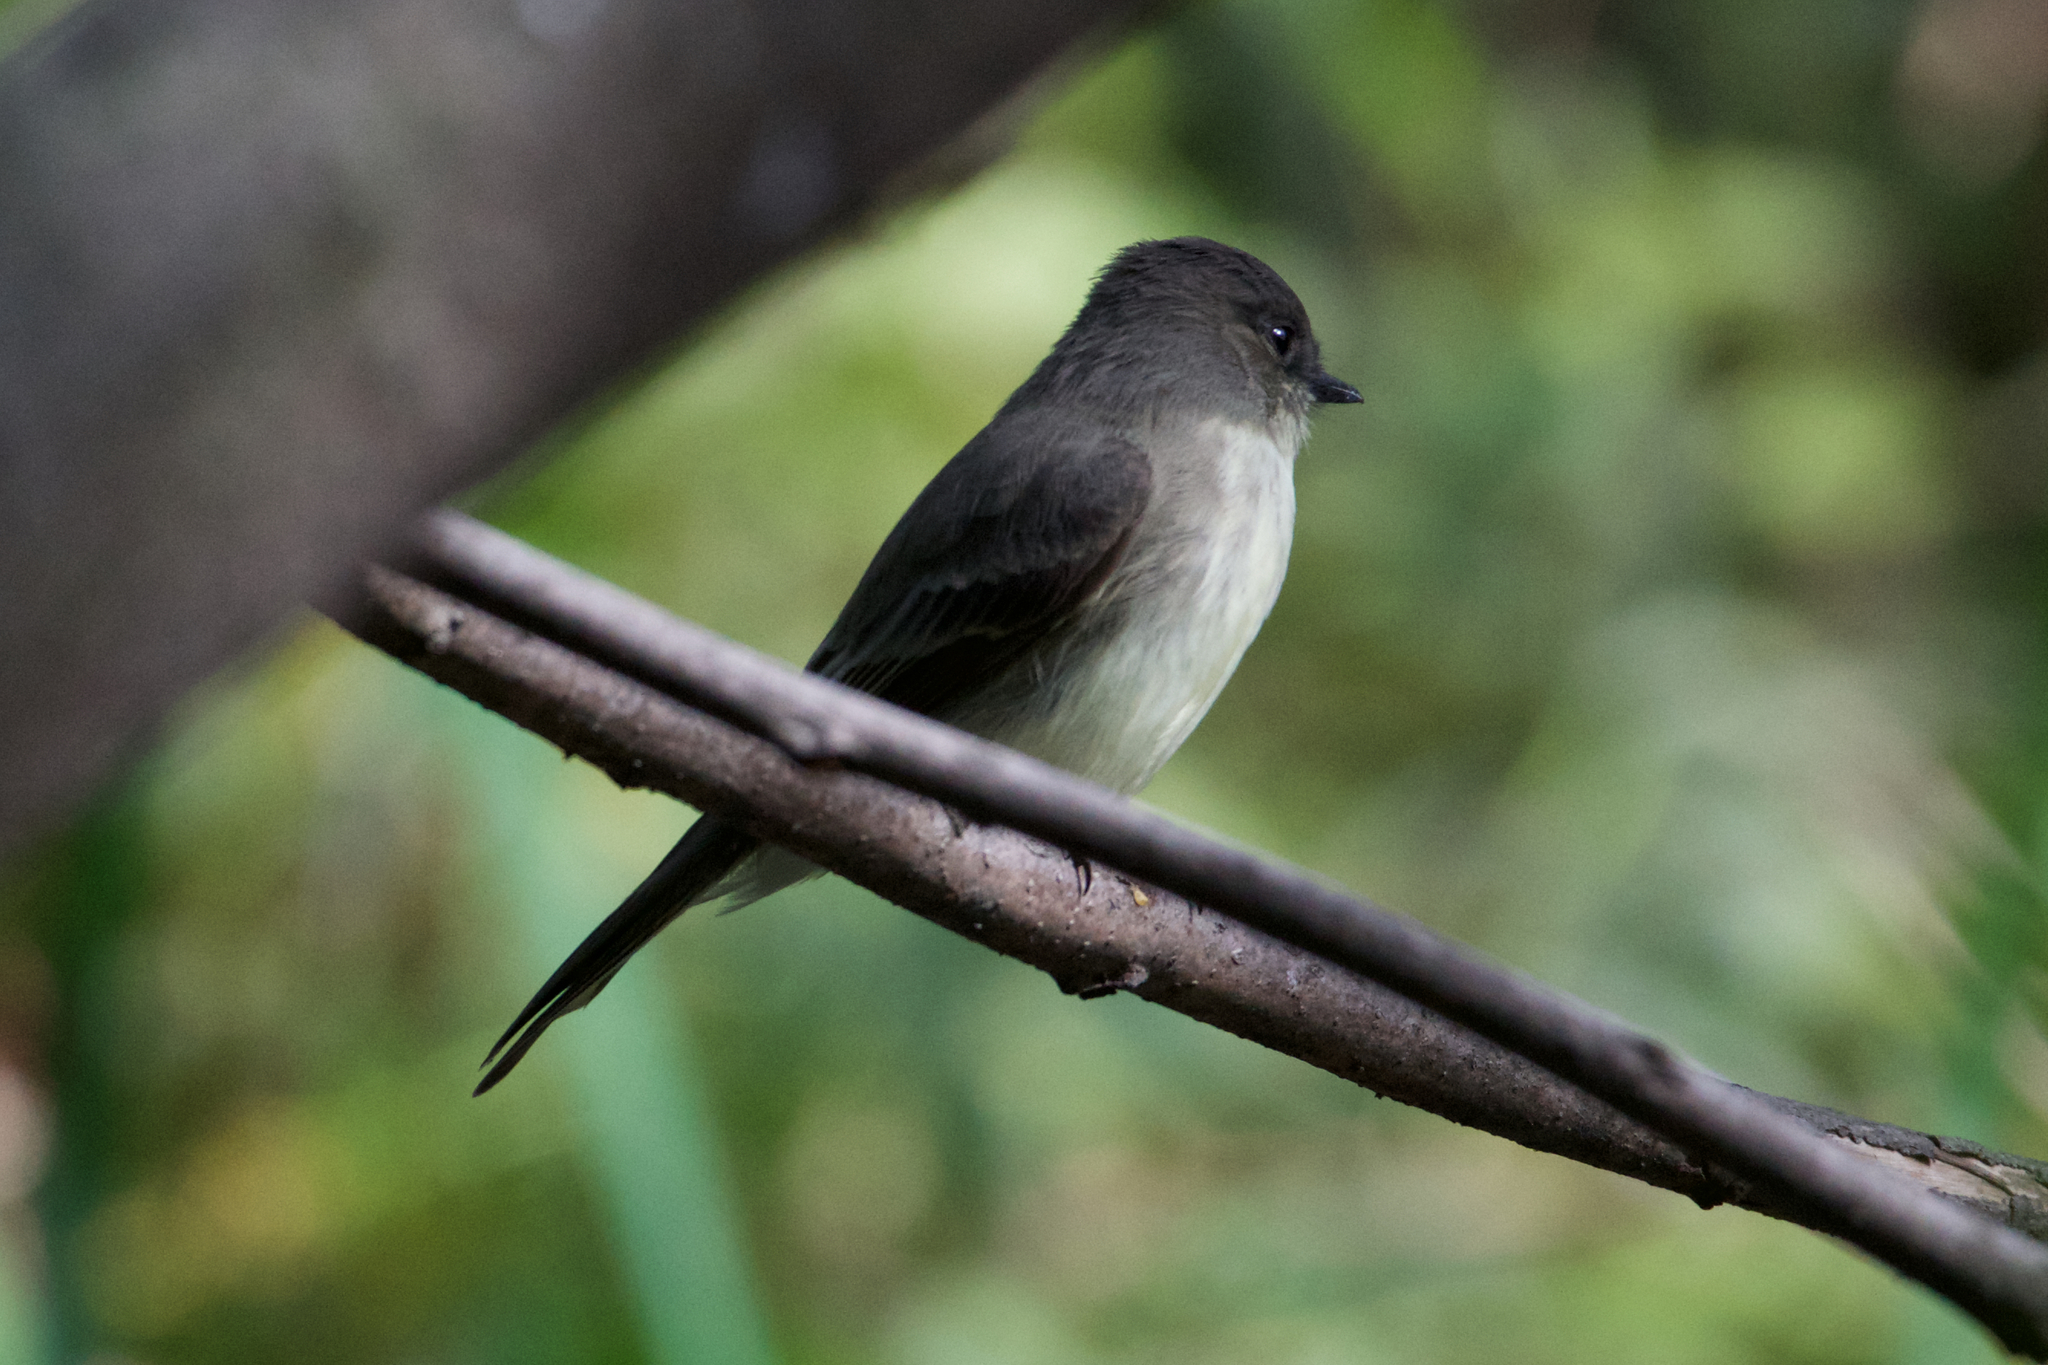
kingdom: Animalia
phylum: Chordata
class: Aves
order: Passeriformes
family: Tyrannidae
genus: Sayornis
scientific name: Sayornis phoebe
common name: Eastern phoebe
